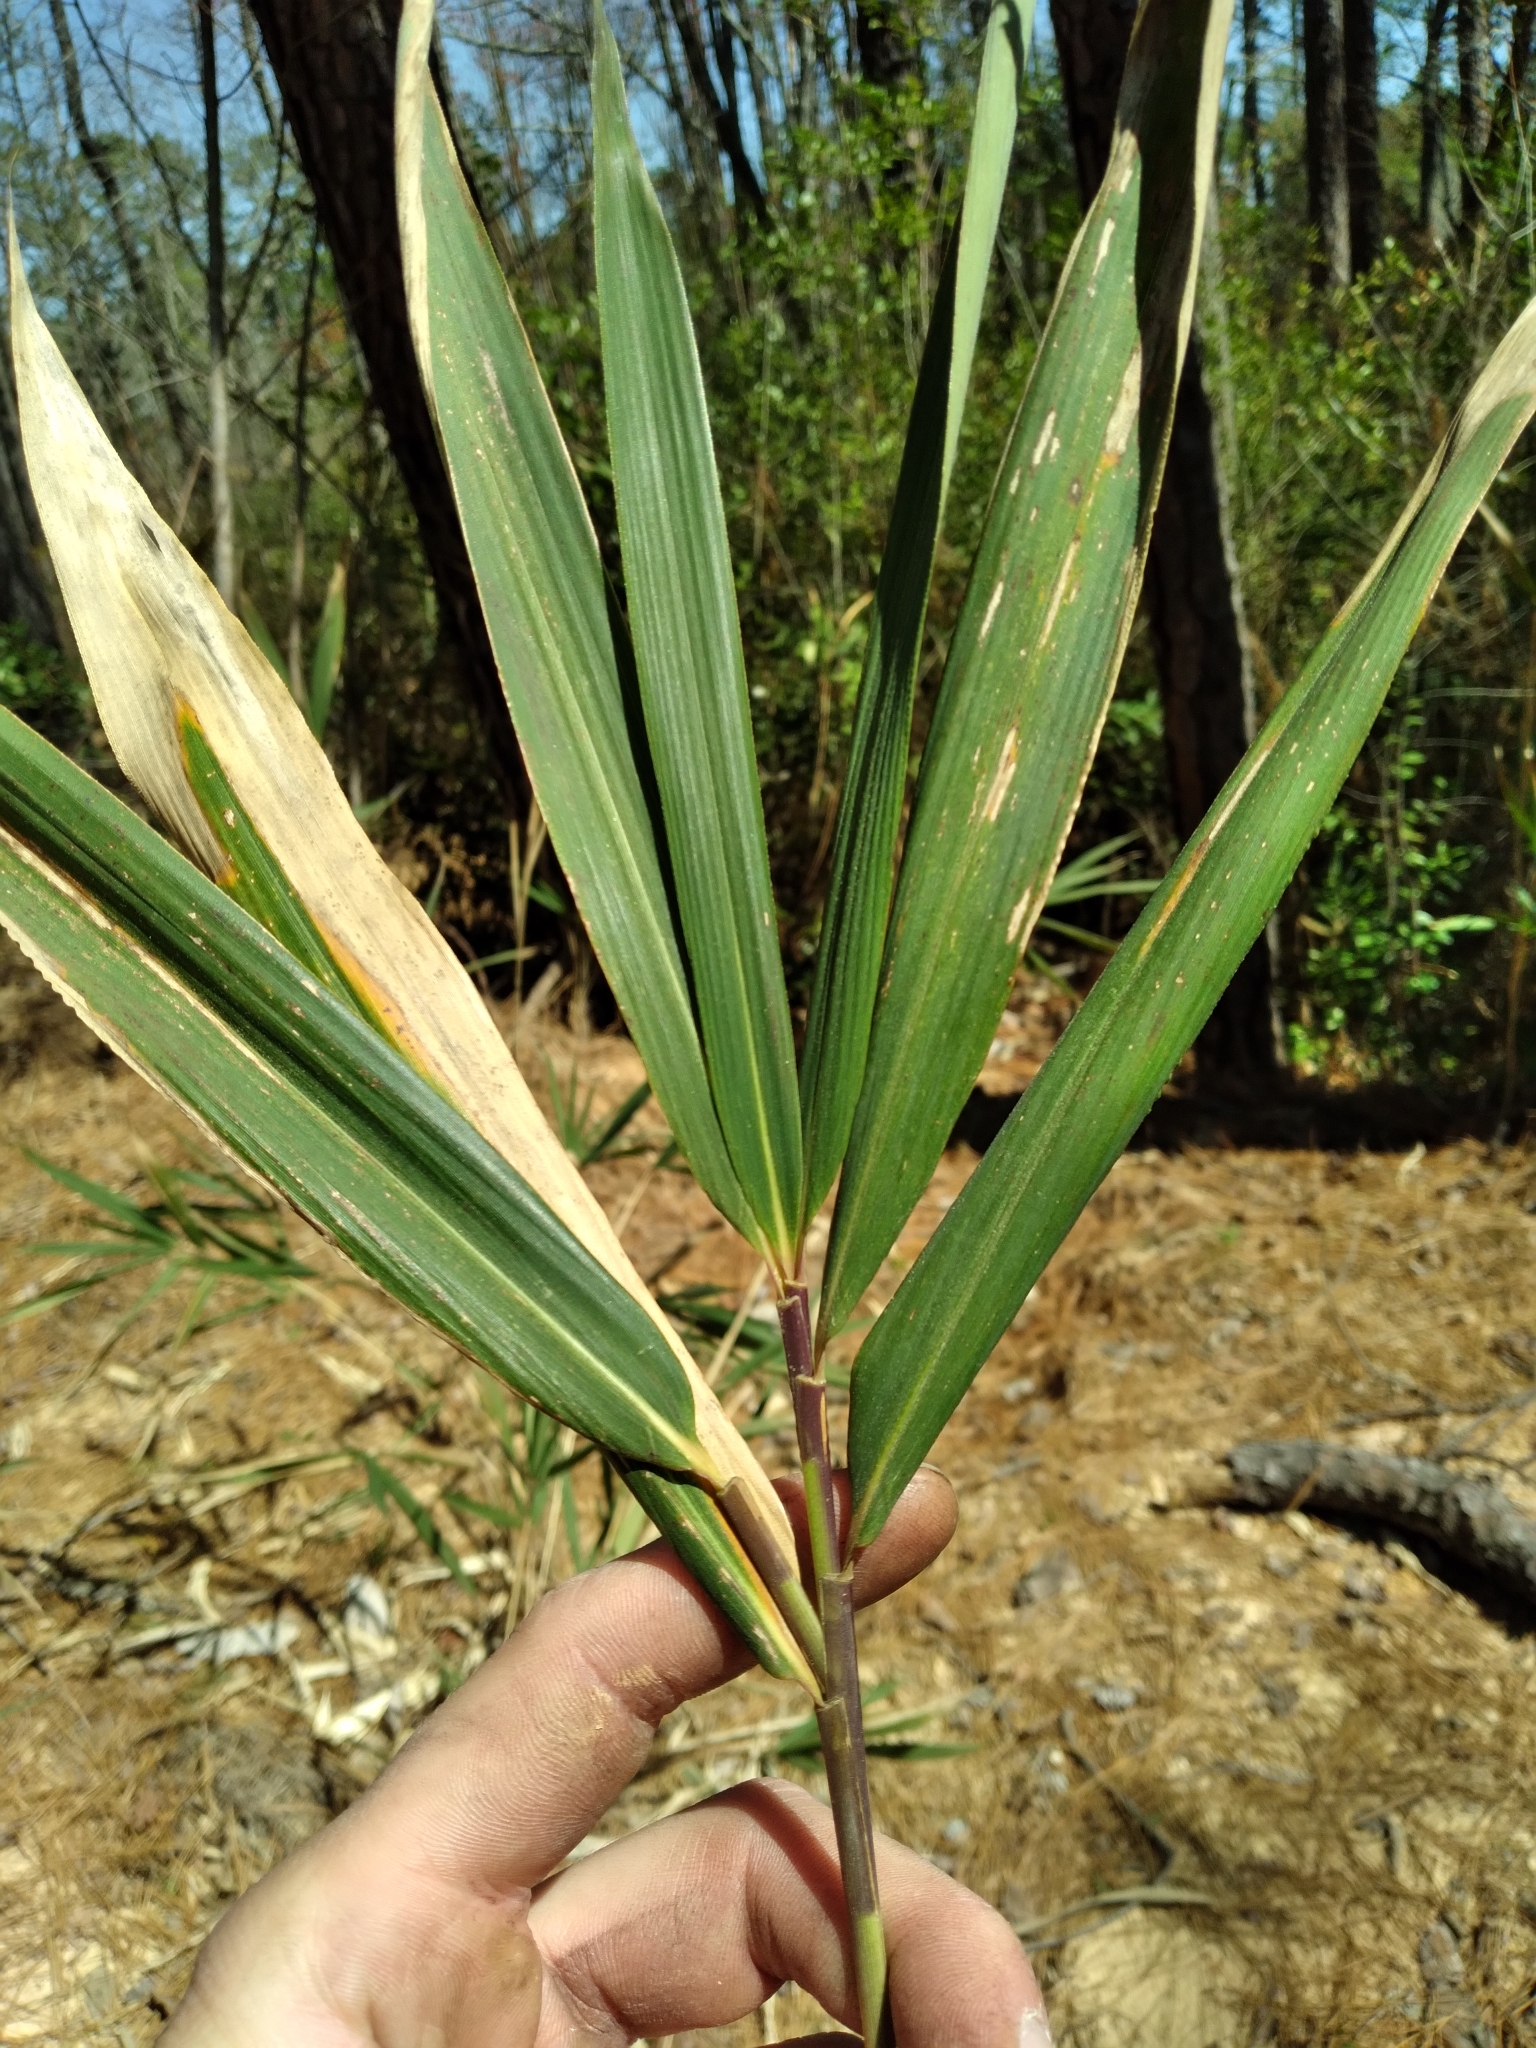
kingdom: Plantae
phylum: Tracheophyta
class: Liliopsida
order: Poales
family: Poaceae
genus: Arundinaria
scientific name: Arundinaria tecta
